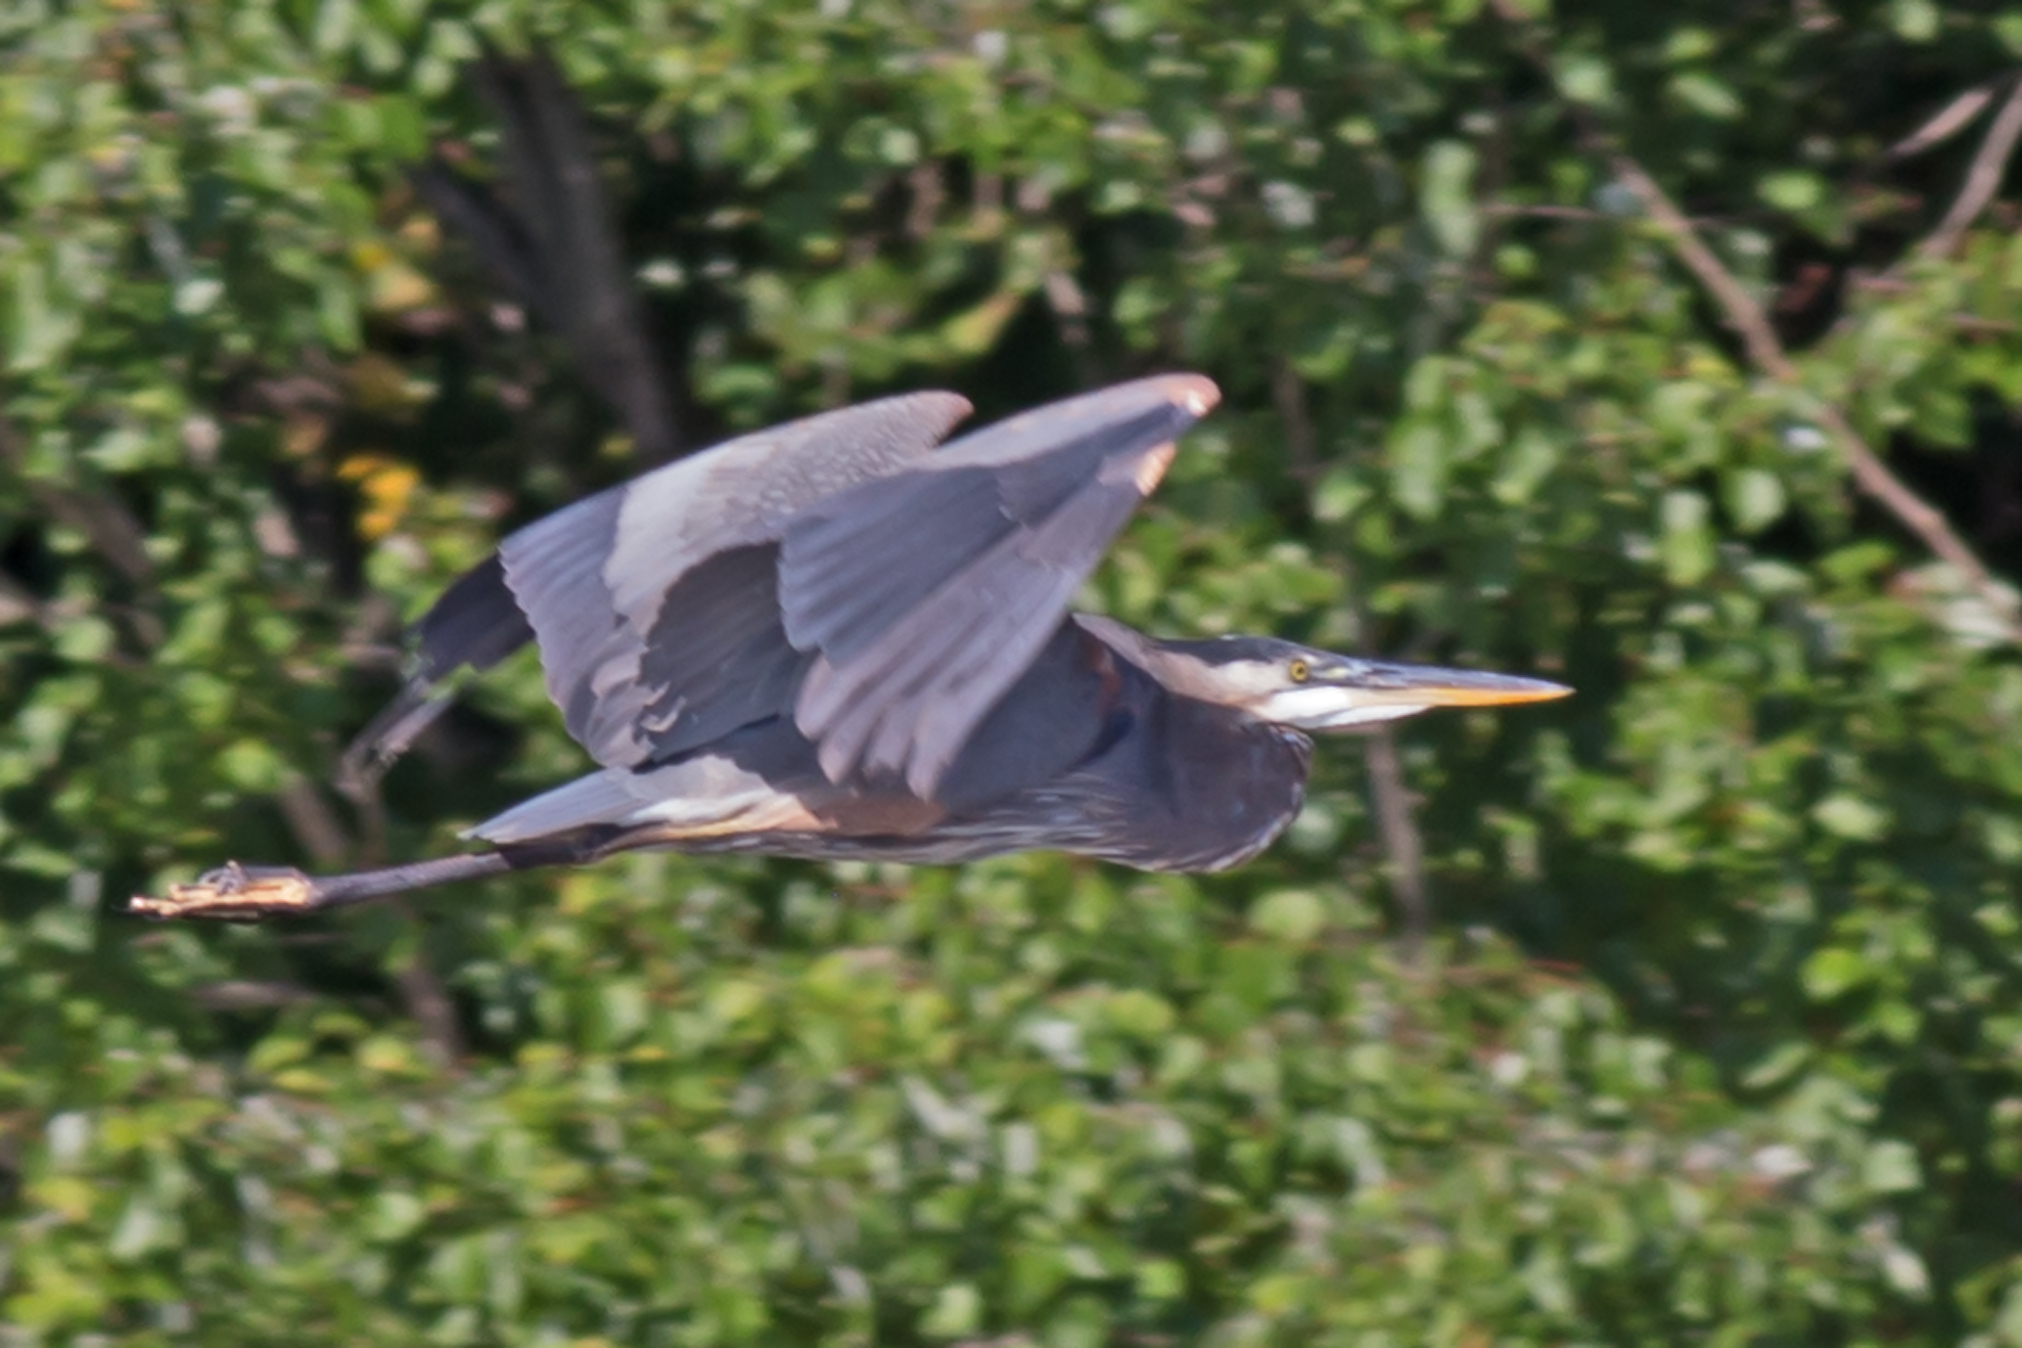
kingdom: Animalia
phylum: Chordata
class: Aves
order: Pelecaniformes
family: Ardeidae
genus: Ardea
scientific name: Ardea herodias
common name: Great blue heron
